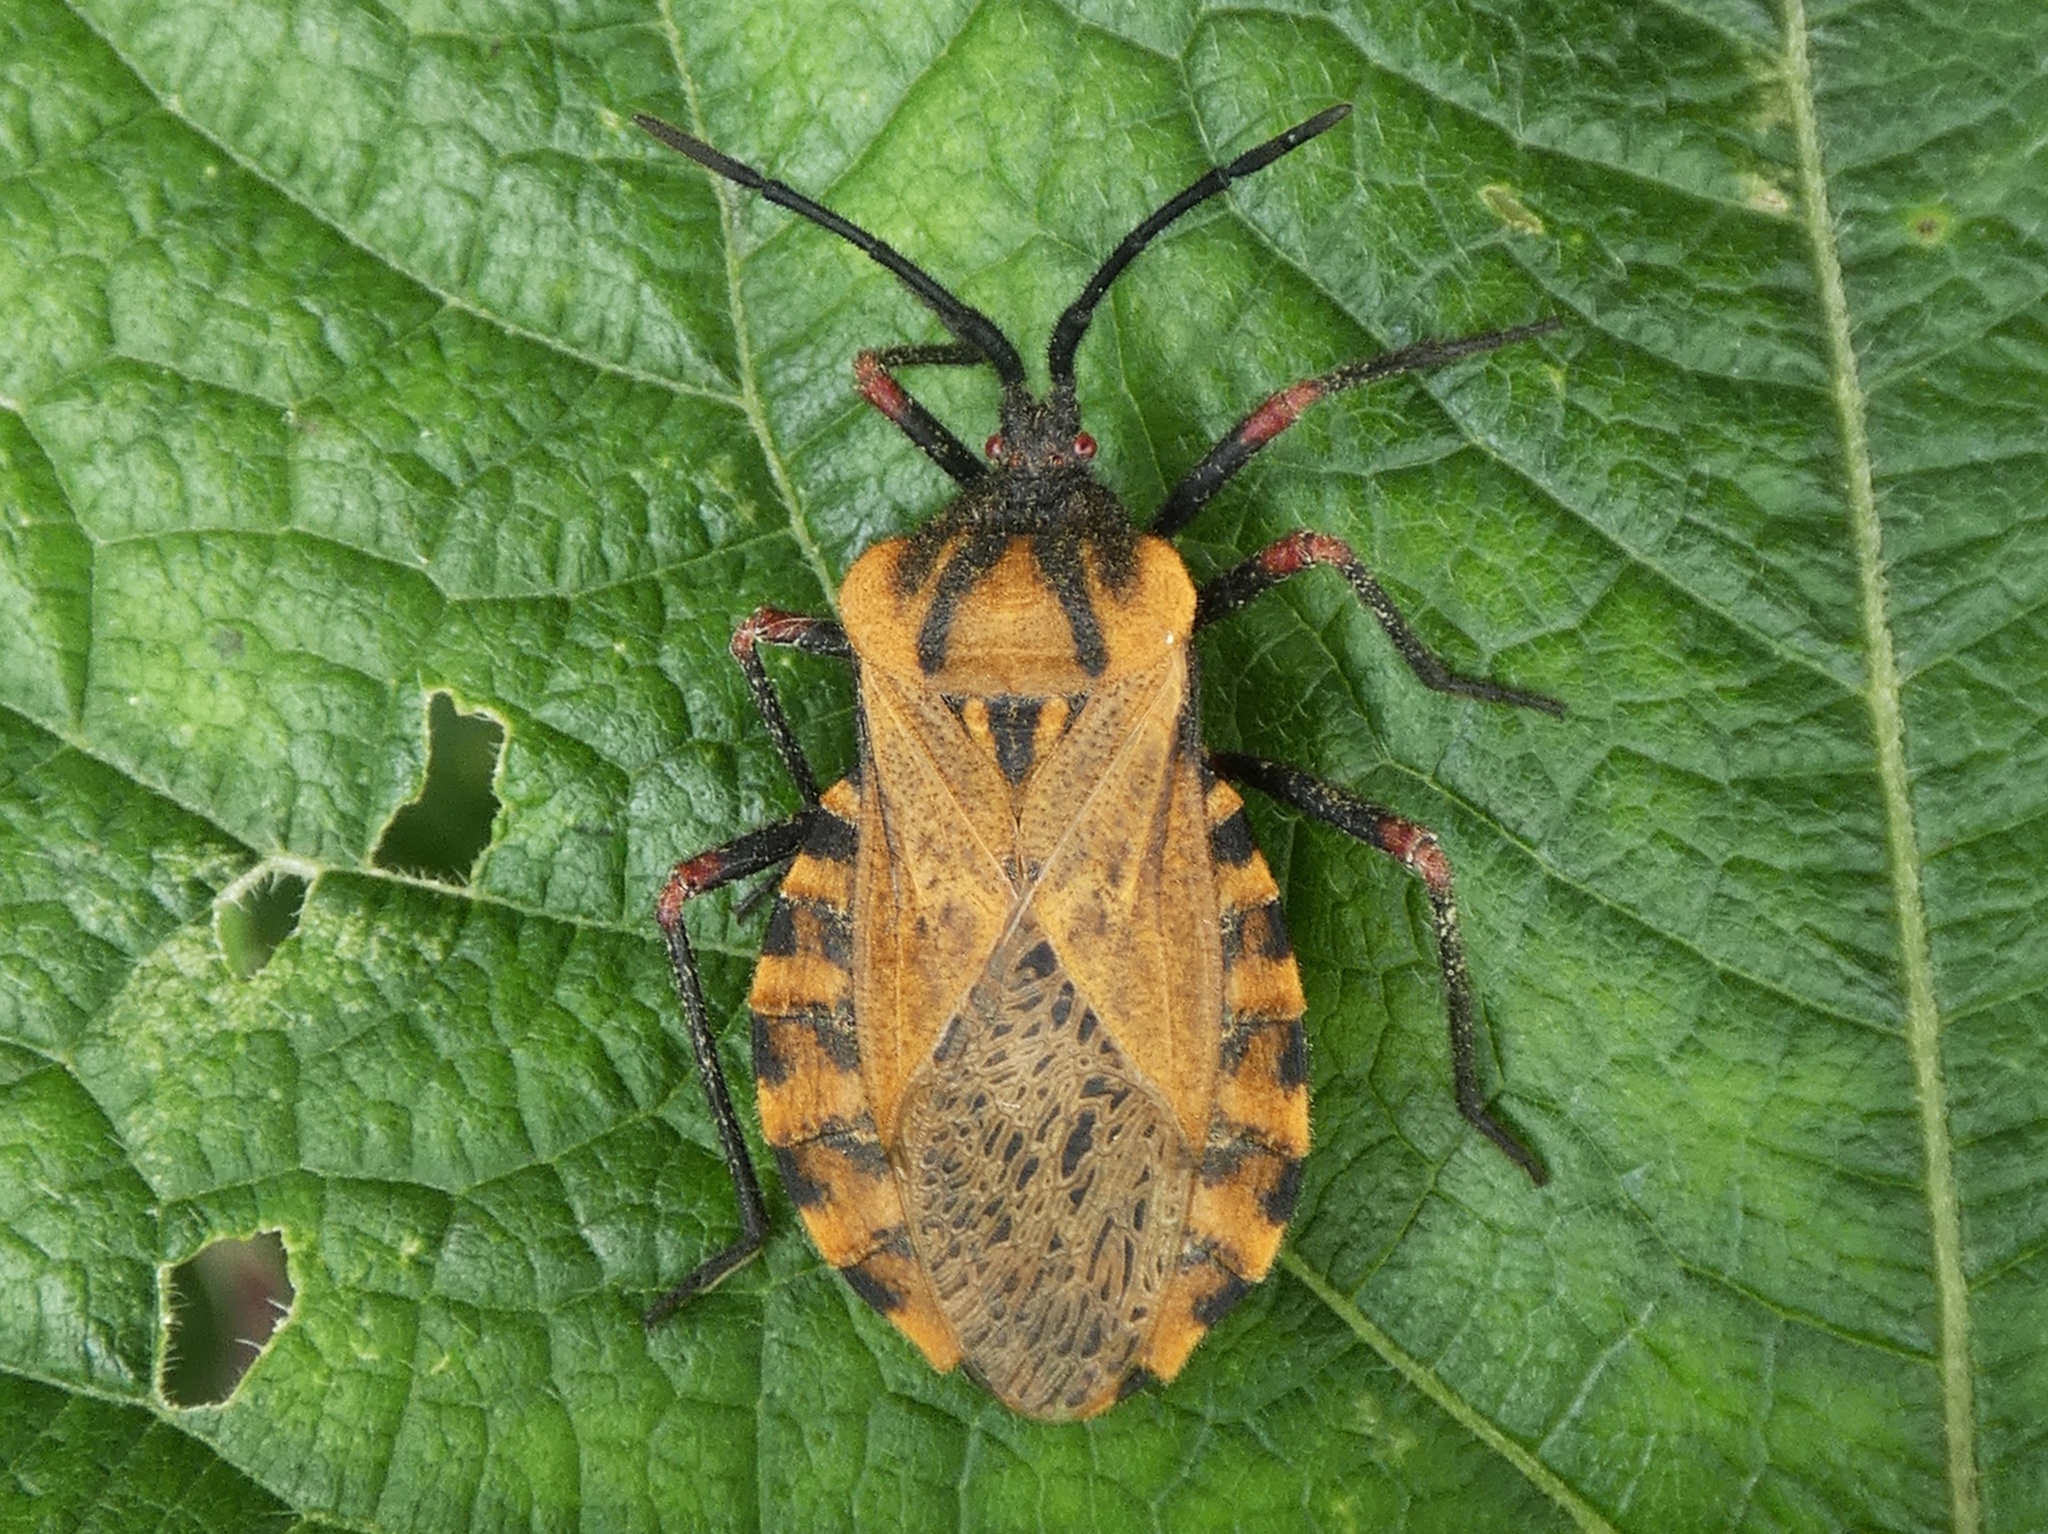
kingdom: Animalia
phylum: Arthropoda
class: Insecta
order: Hemiptera
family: Coreidae
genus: Spartocera
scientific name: Spartocera fusca
